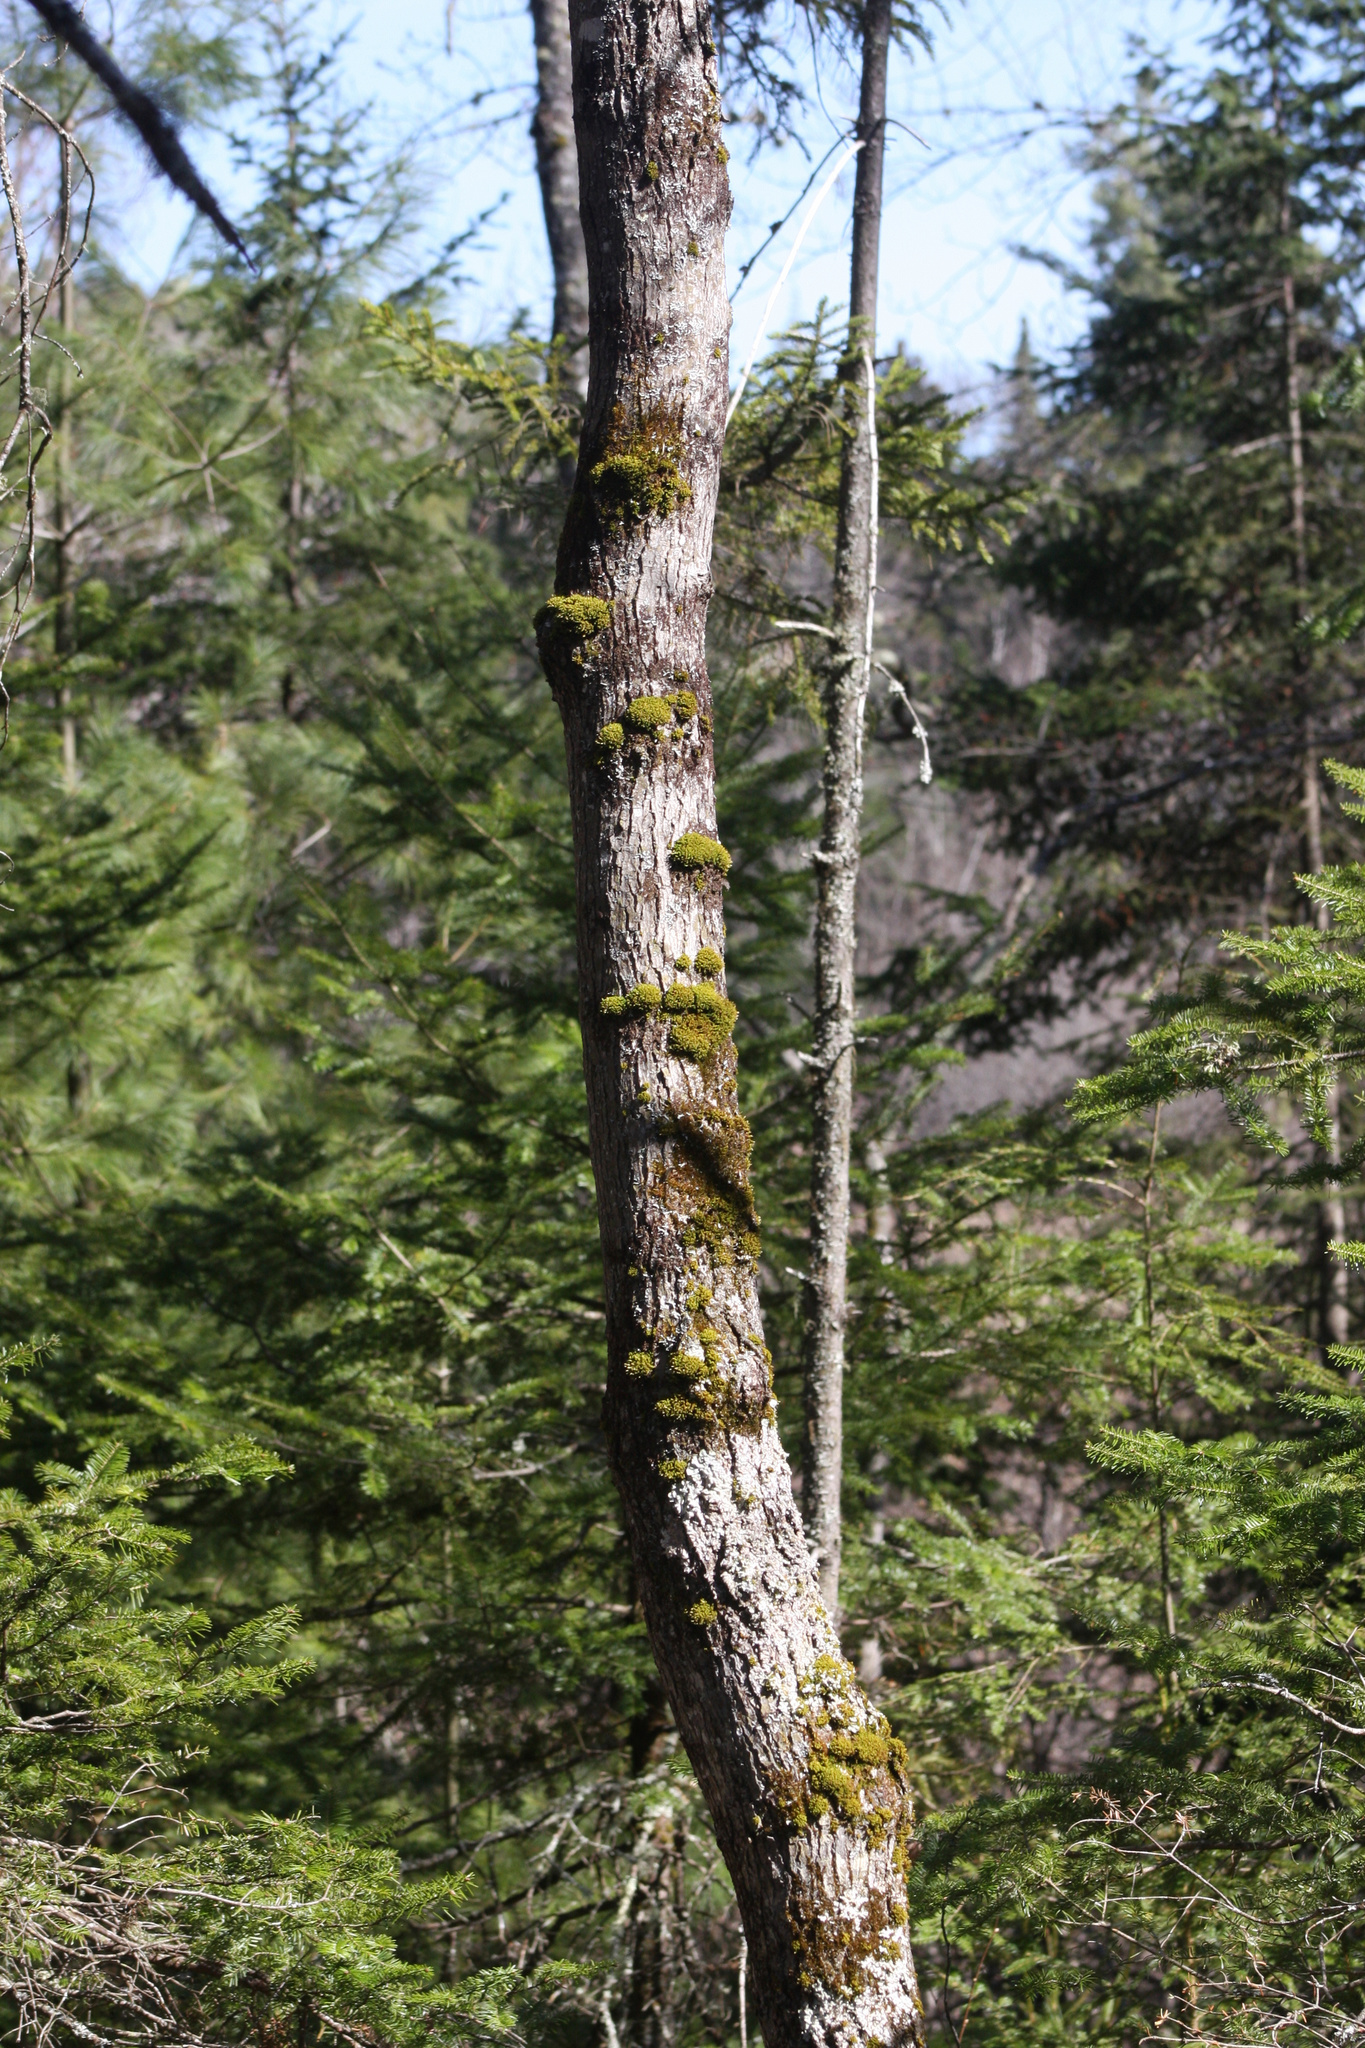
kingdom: Plantae
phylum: Bryophyta
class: Bryopsida
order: Orthotrichales
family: Orthotrichaceae
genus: Ulota
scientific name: Ulota crispa
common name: Crisped pincushion moss
